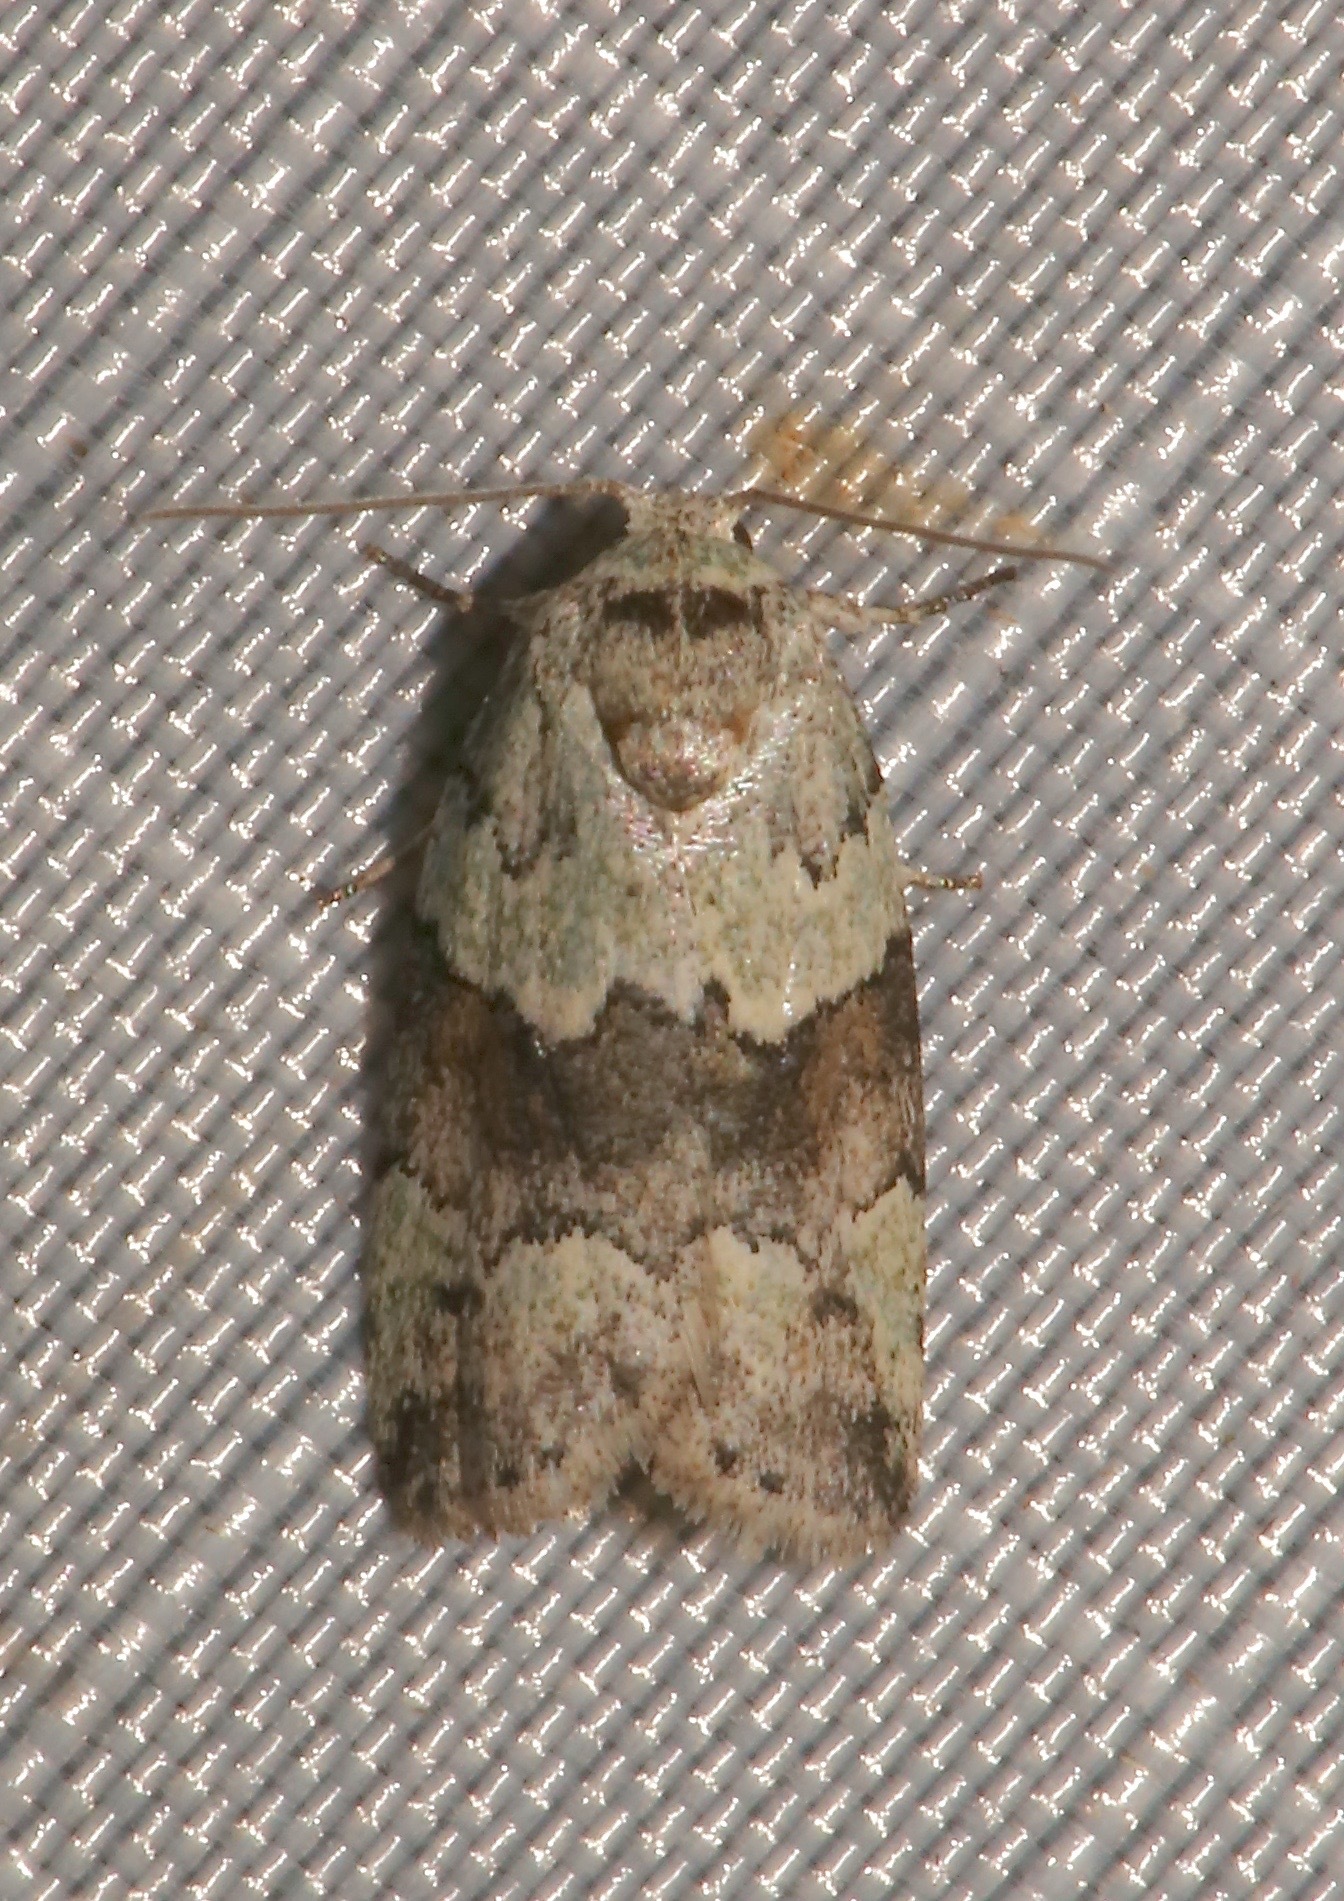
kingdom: Animalia
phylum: Arthropoda
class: Insecta
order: Lepidoptera
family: Nolidae
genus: Afrida
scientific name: Afrida ydatodes
